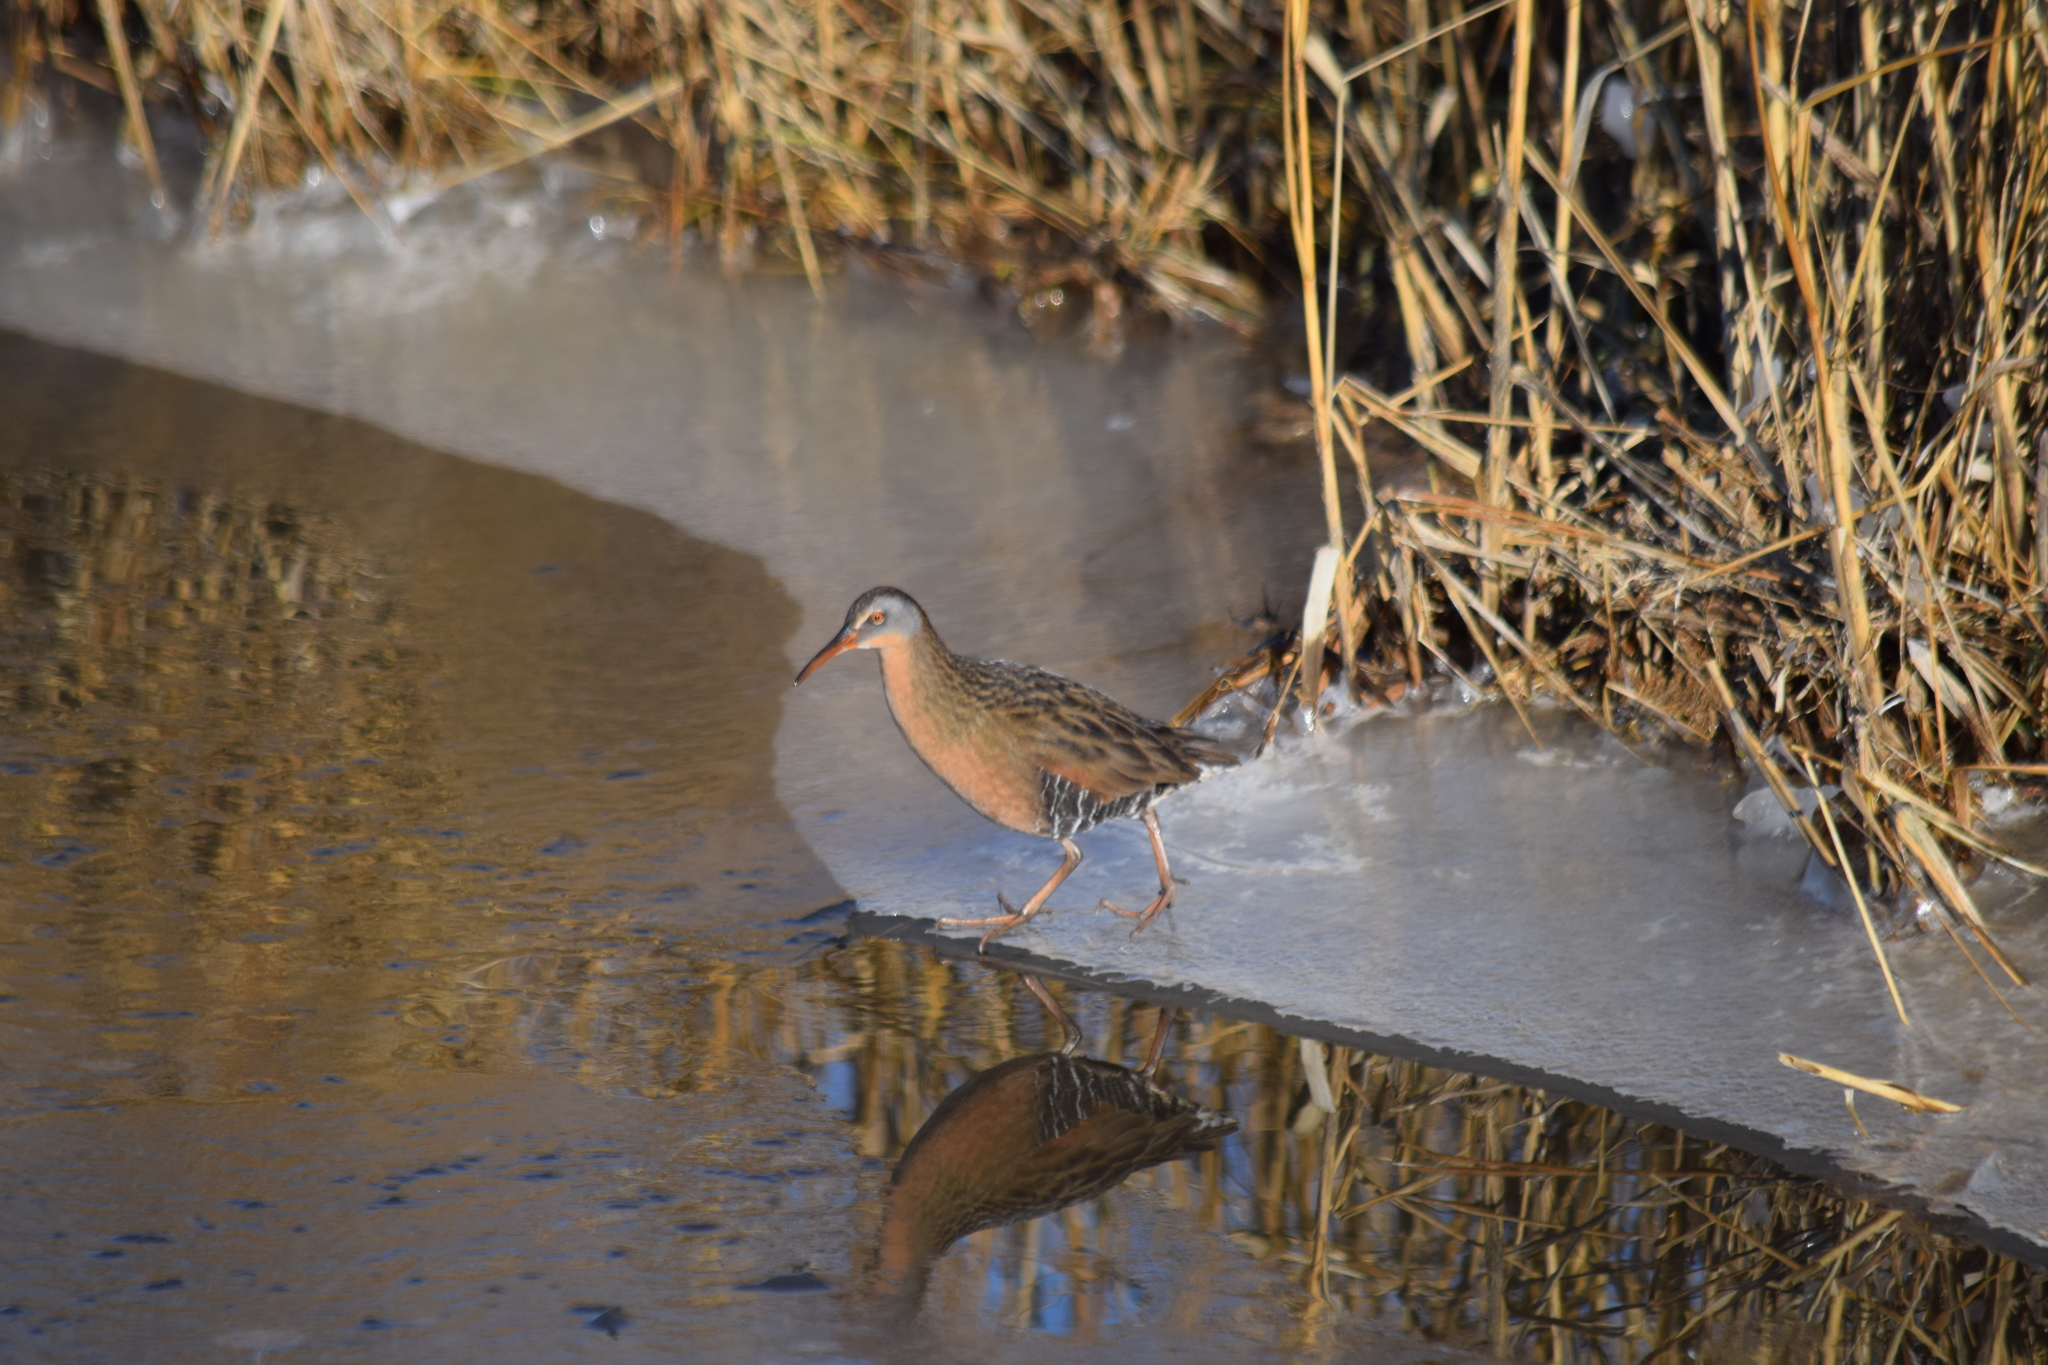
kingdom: Animalia
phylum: Chordata
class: Aves
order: Gruiformes
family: Rallidae
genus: Rallus
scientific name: Rallus limicola
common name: Virginia rail
